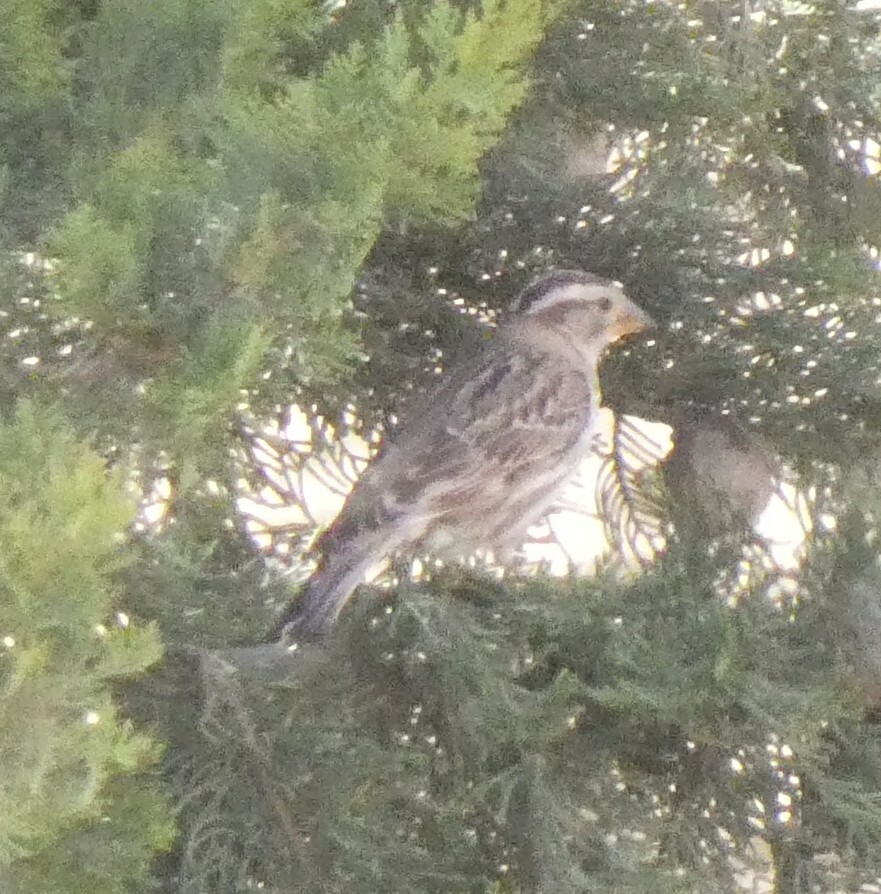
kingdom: Animalia
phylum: Chordata
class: Aves
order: Passeriformes
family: Passeridae
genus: Petronia
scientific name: Petronia petronia
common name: Rock sparrow
